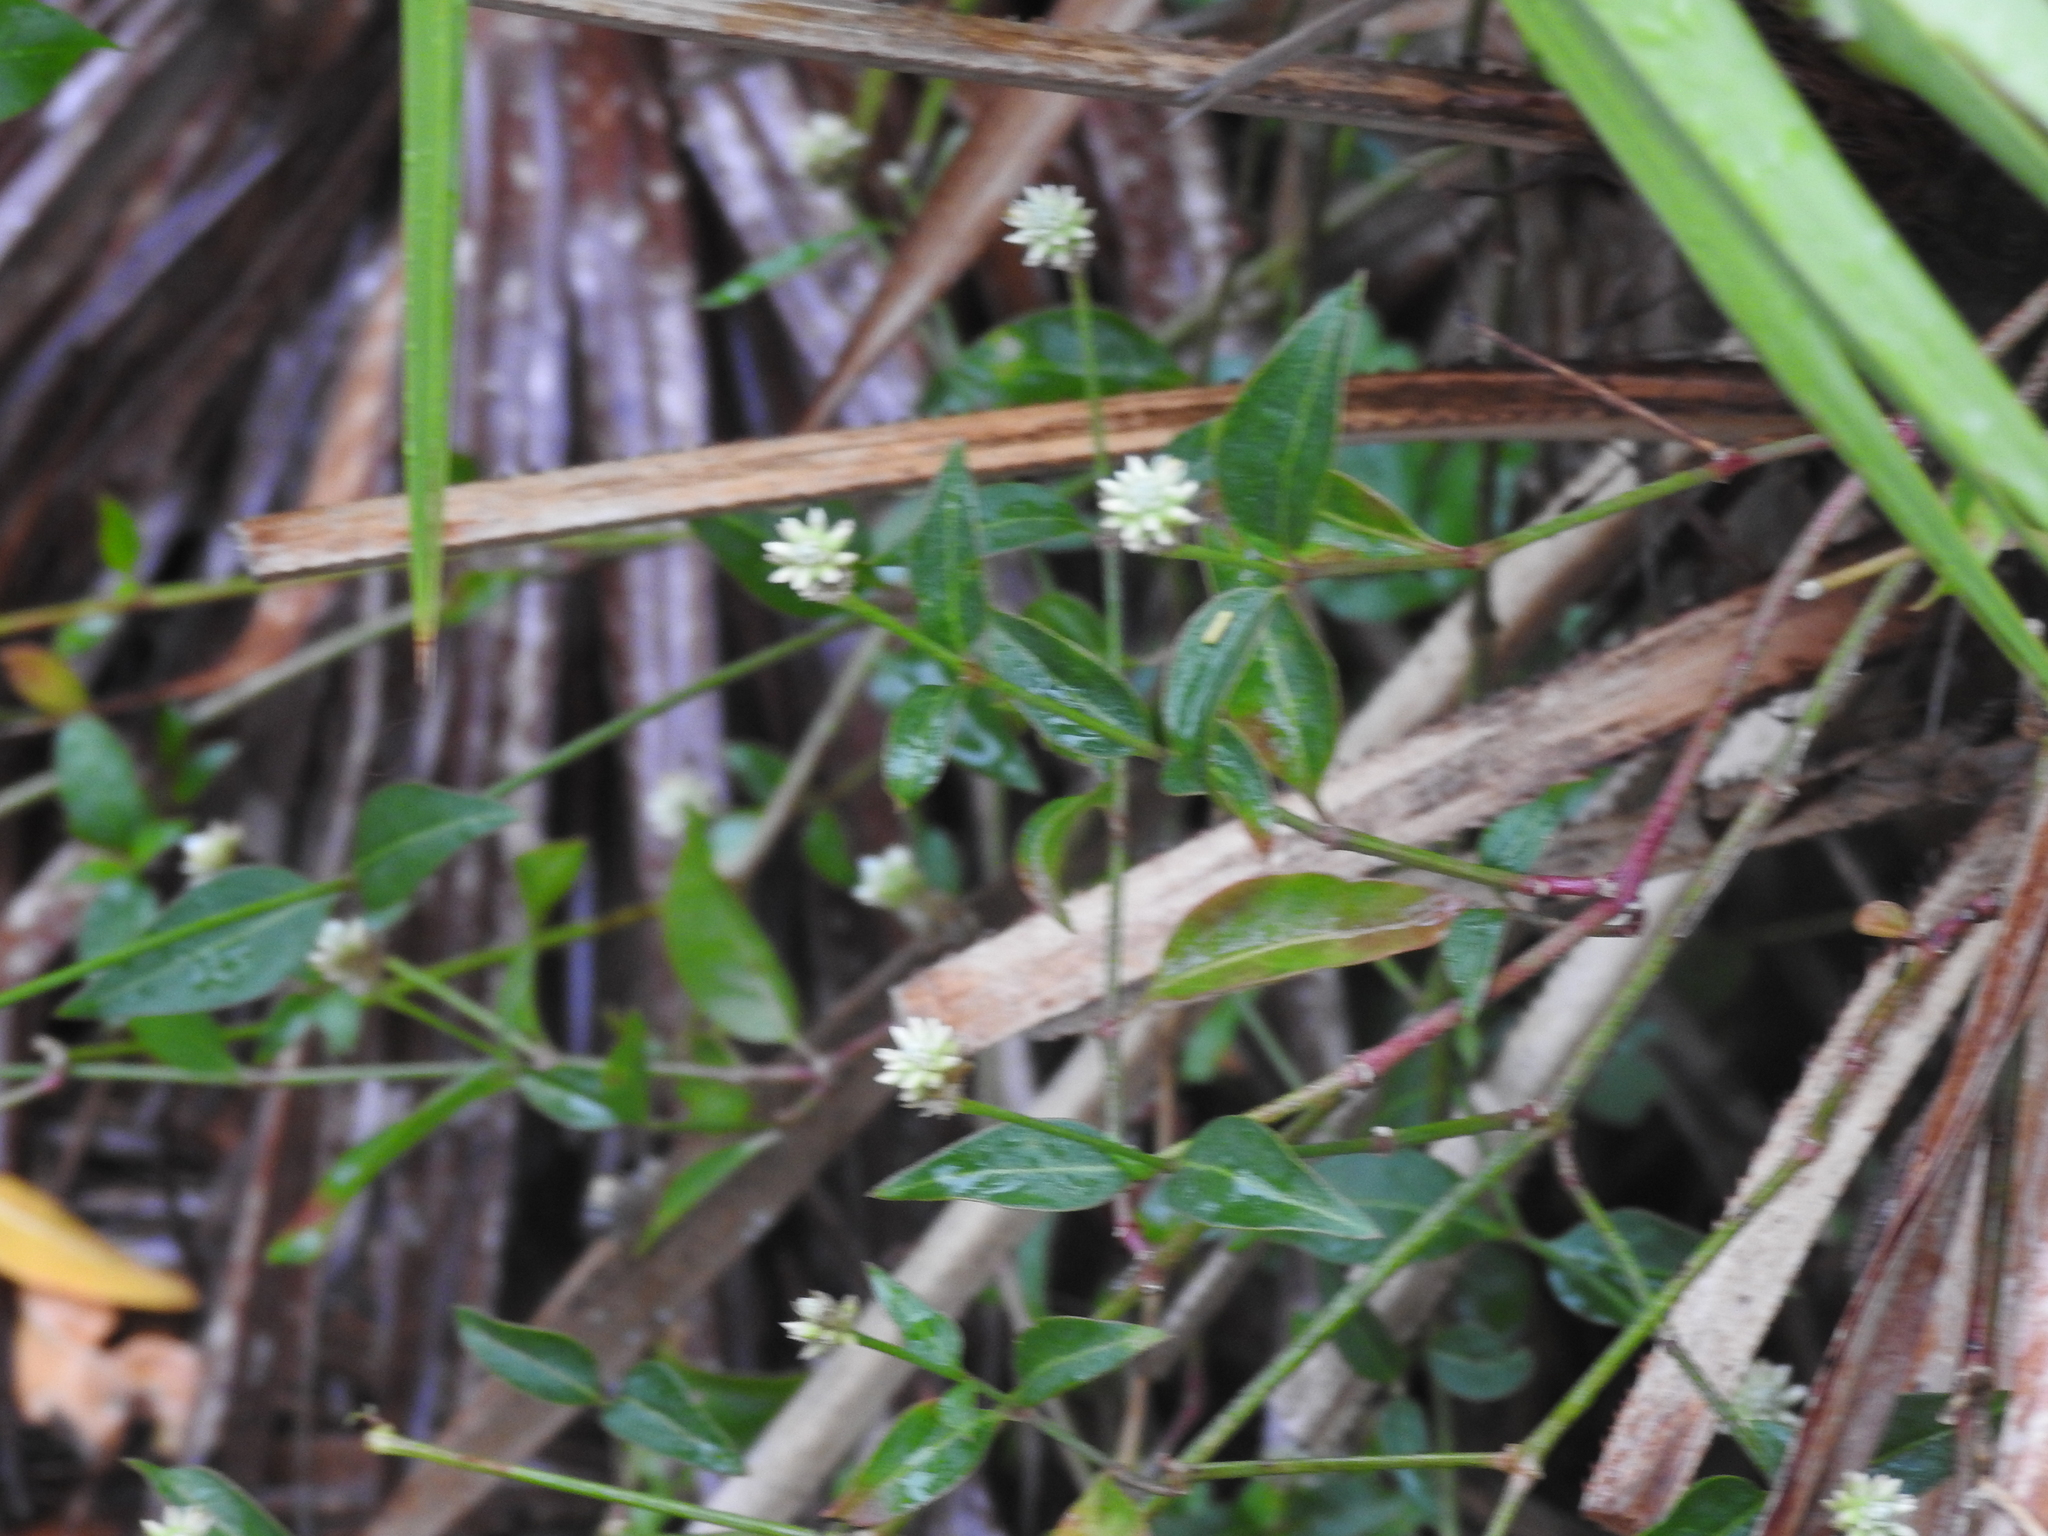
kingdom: Plantae
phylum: Tracheophyta
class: Magnoliopsida
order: Caryophyllales
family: Amaranthaceae
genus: Alternanthera
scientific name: Alternanthera flavescens
